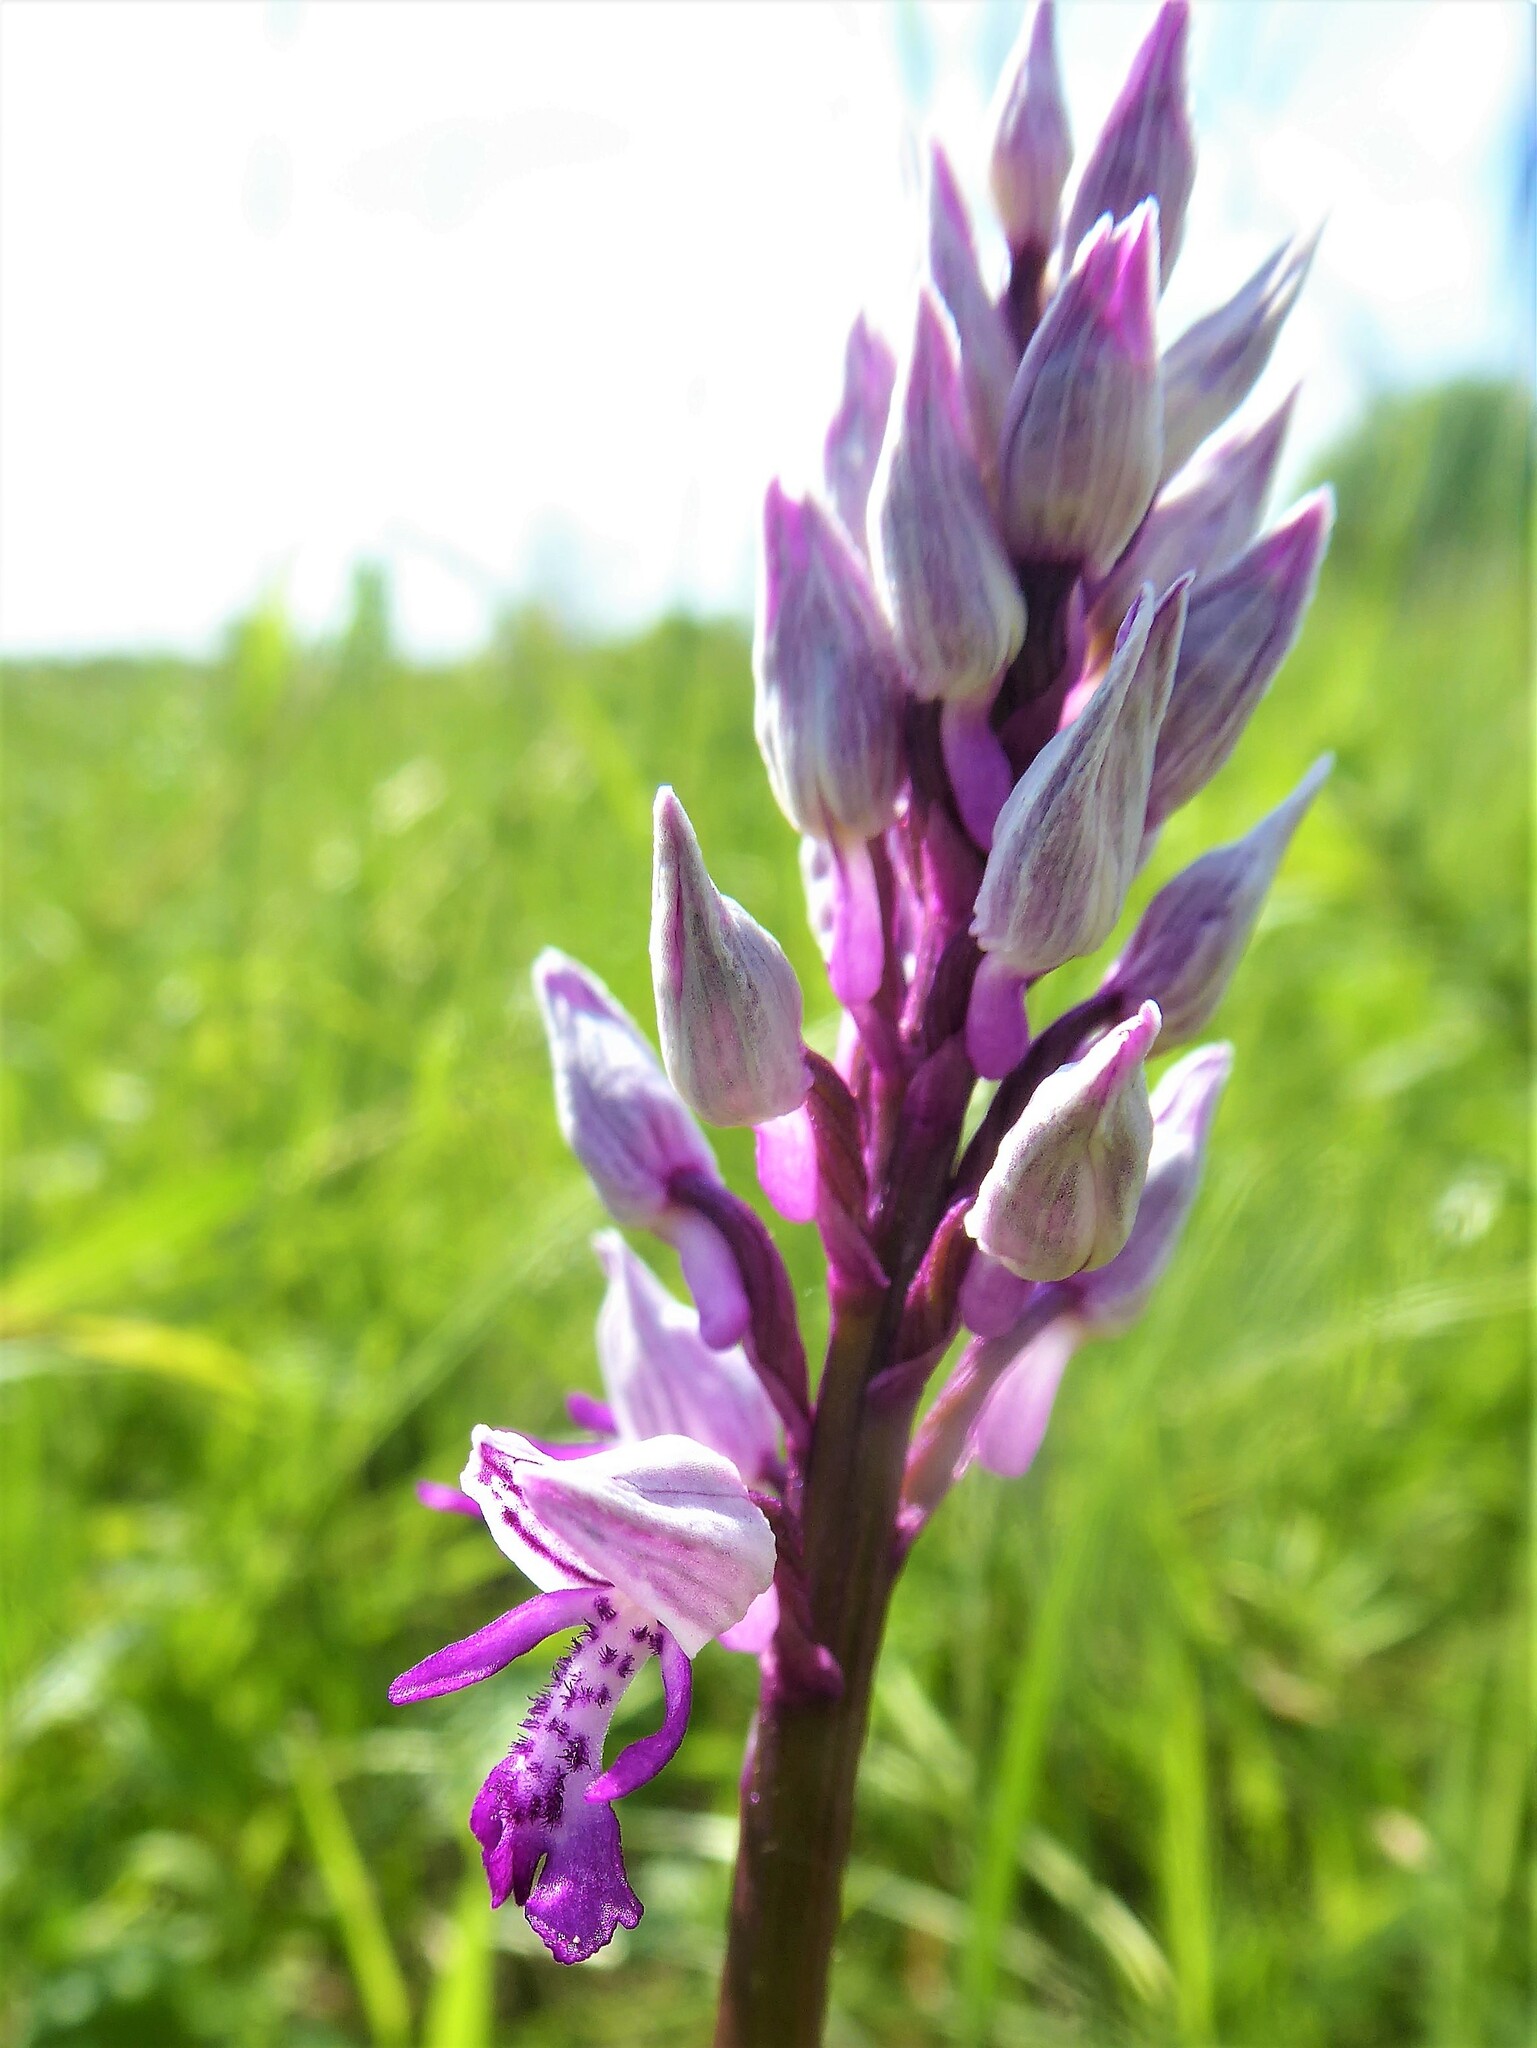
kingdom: Plantae
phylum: Tracheophyta
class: Liliopsida
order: Asparagales
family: Orchidaceae
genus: Orchis
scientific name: Orchis militaris
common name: Military orchid
